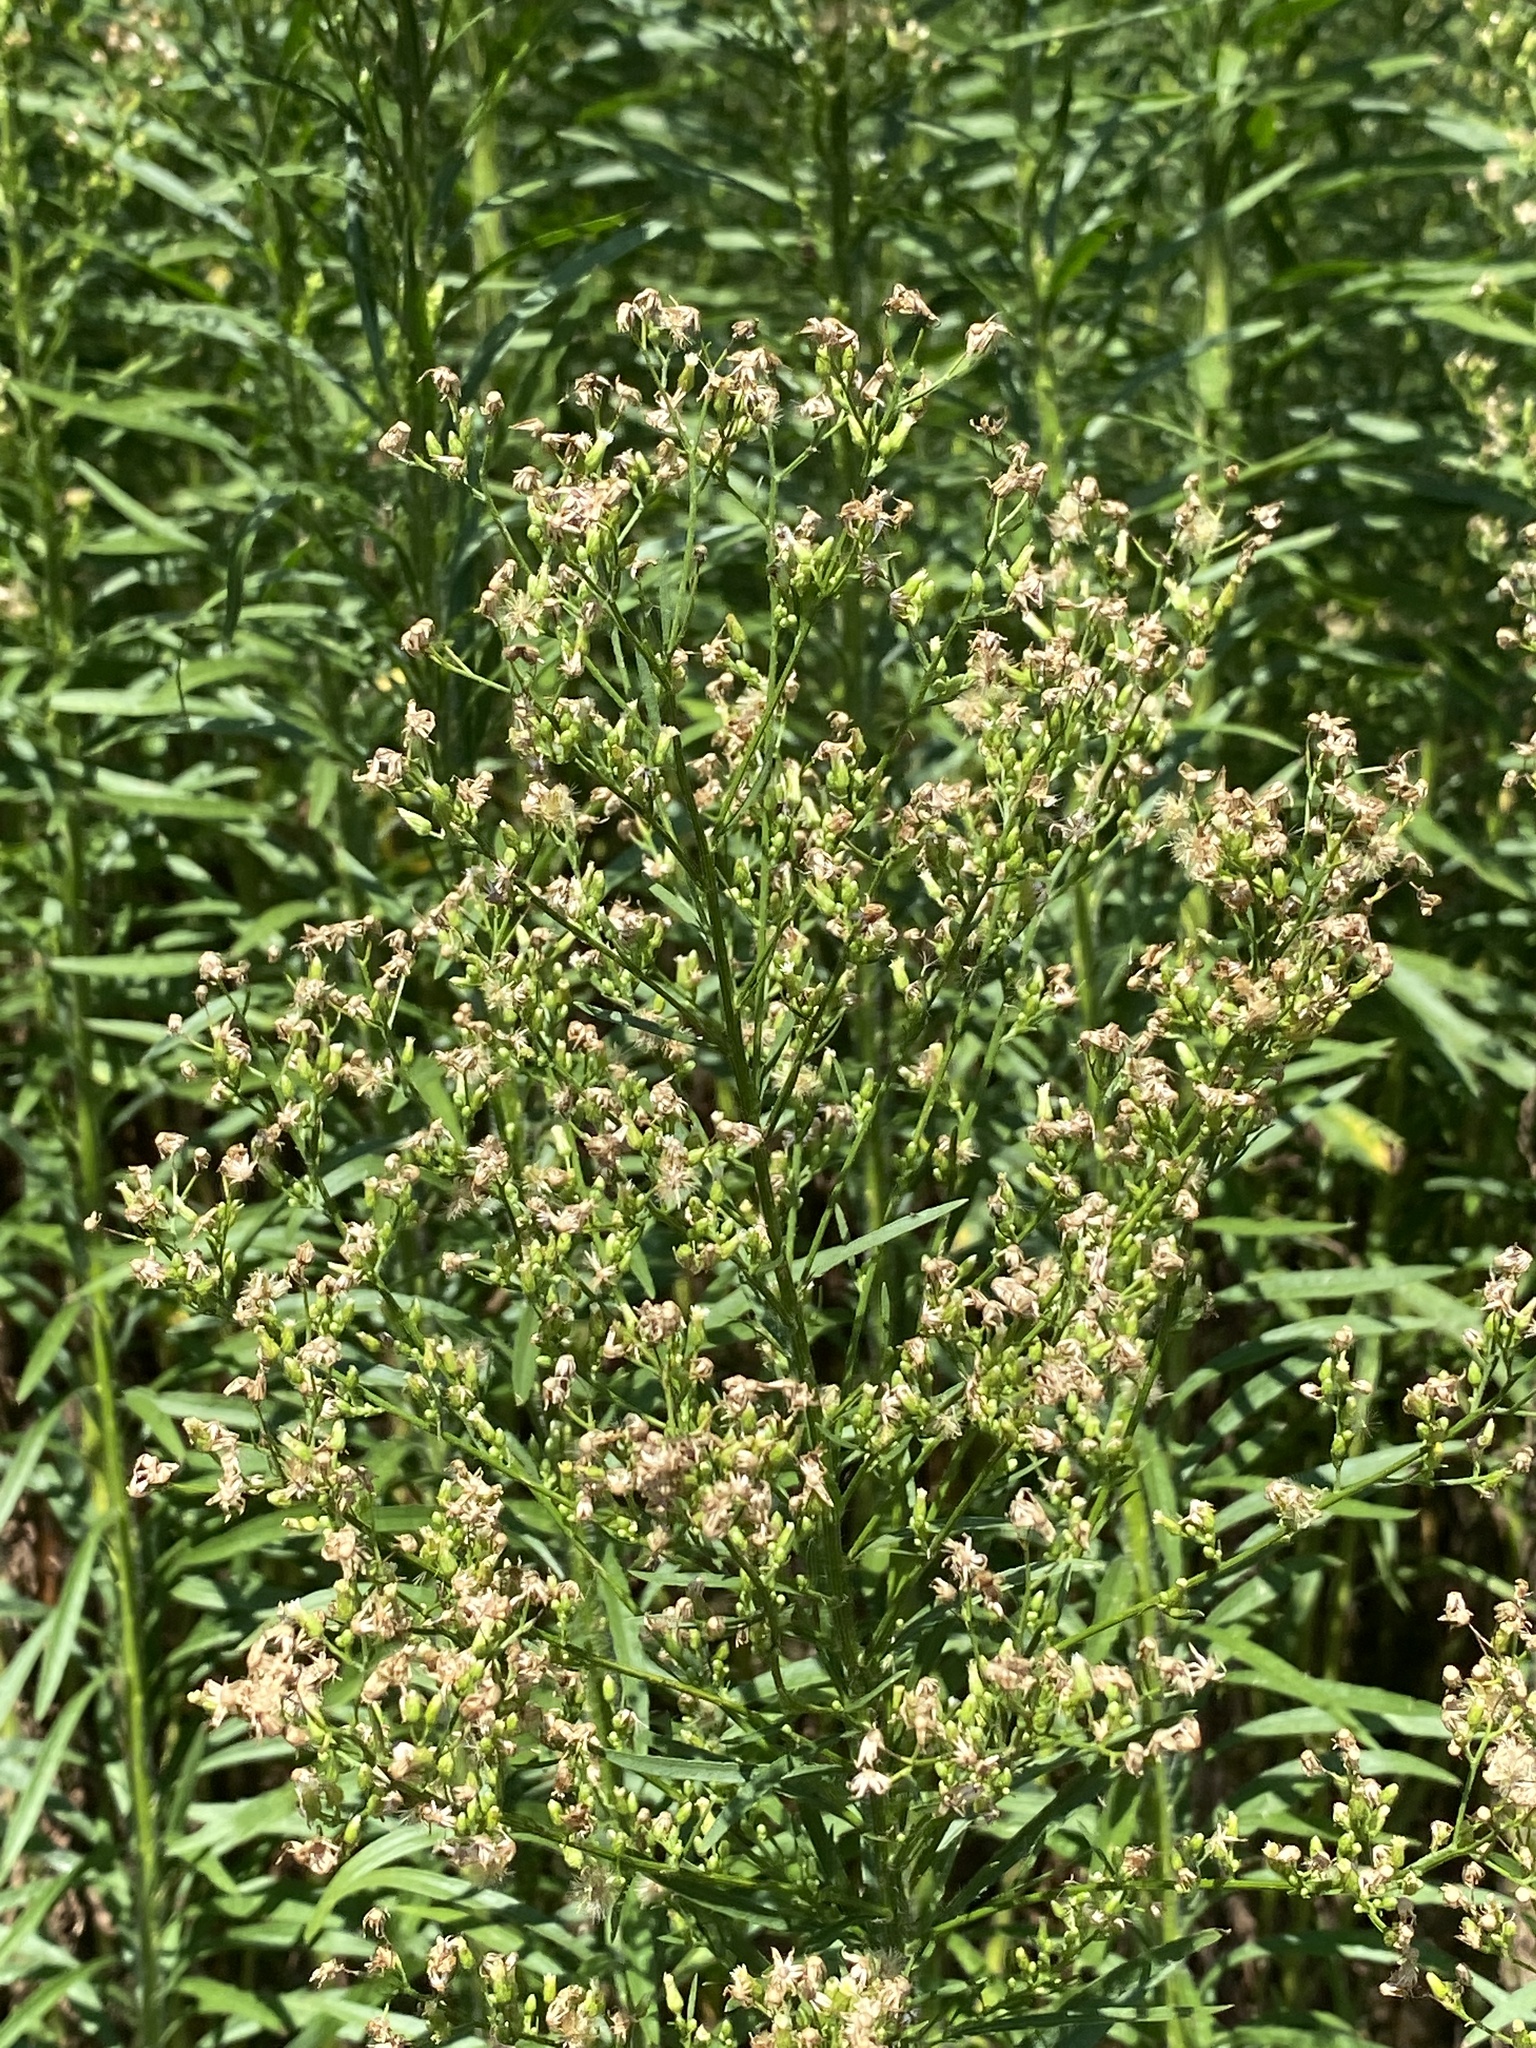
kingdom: Plantae
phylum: Tracheophyta
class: Magnoliopsida
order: Asterales
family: Asteraceae
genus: Erigeron
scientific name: Erigeron canadensis
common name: Canadian fleabane
